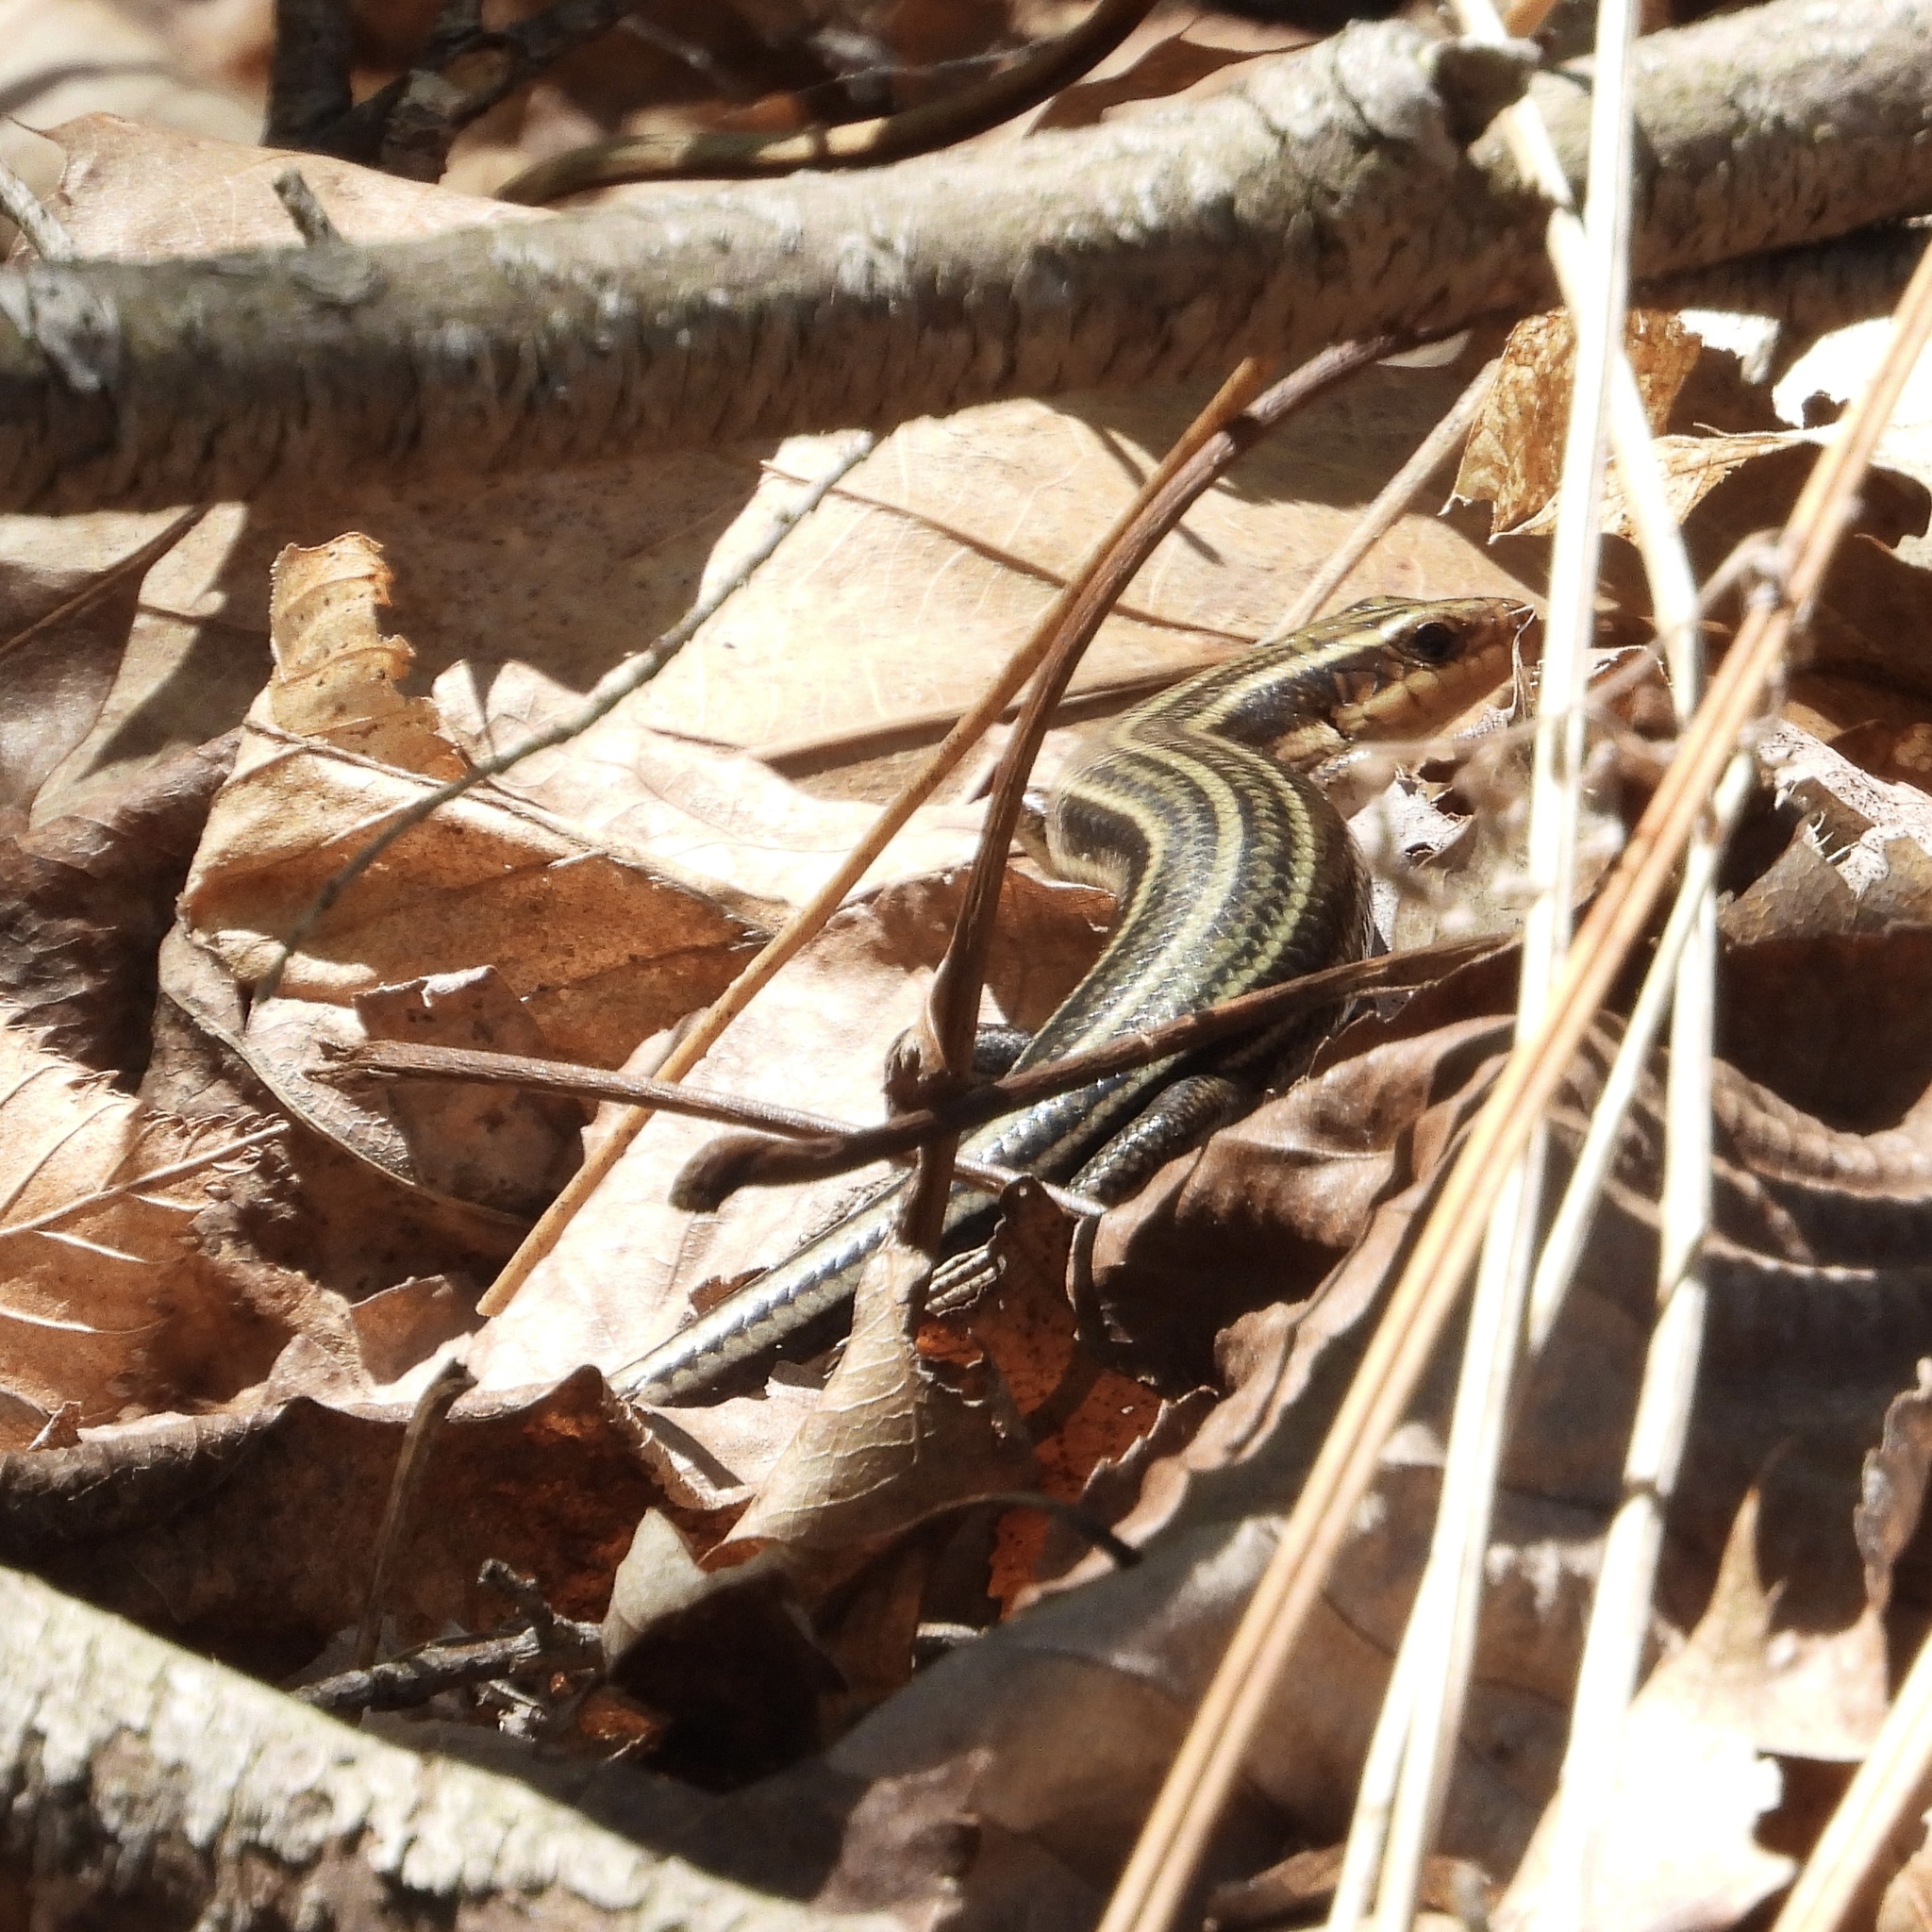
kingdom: Animalia
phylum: Chordata
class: Squamata
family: Scincidae
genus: Plestiodon
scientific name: Plestiodon fasciatus
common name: Five-lined skink
